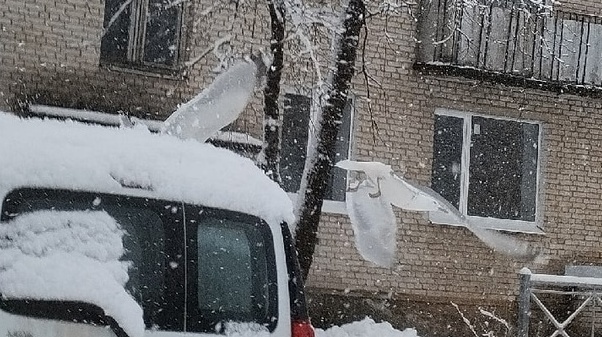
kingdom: Animalia
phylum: Chordata
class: Aves
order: Charadriiformes
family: Laridae
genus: Larus
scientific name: Larus argentatus
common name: Herring gull
